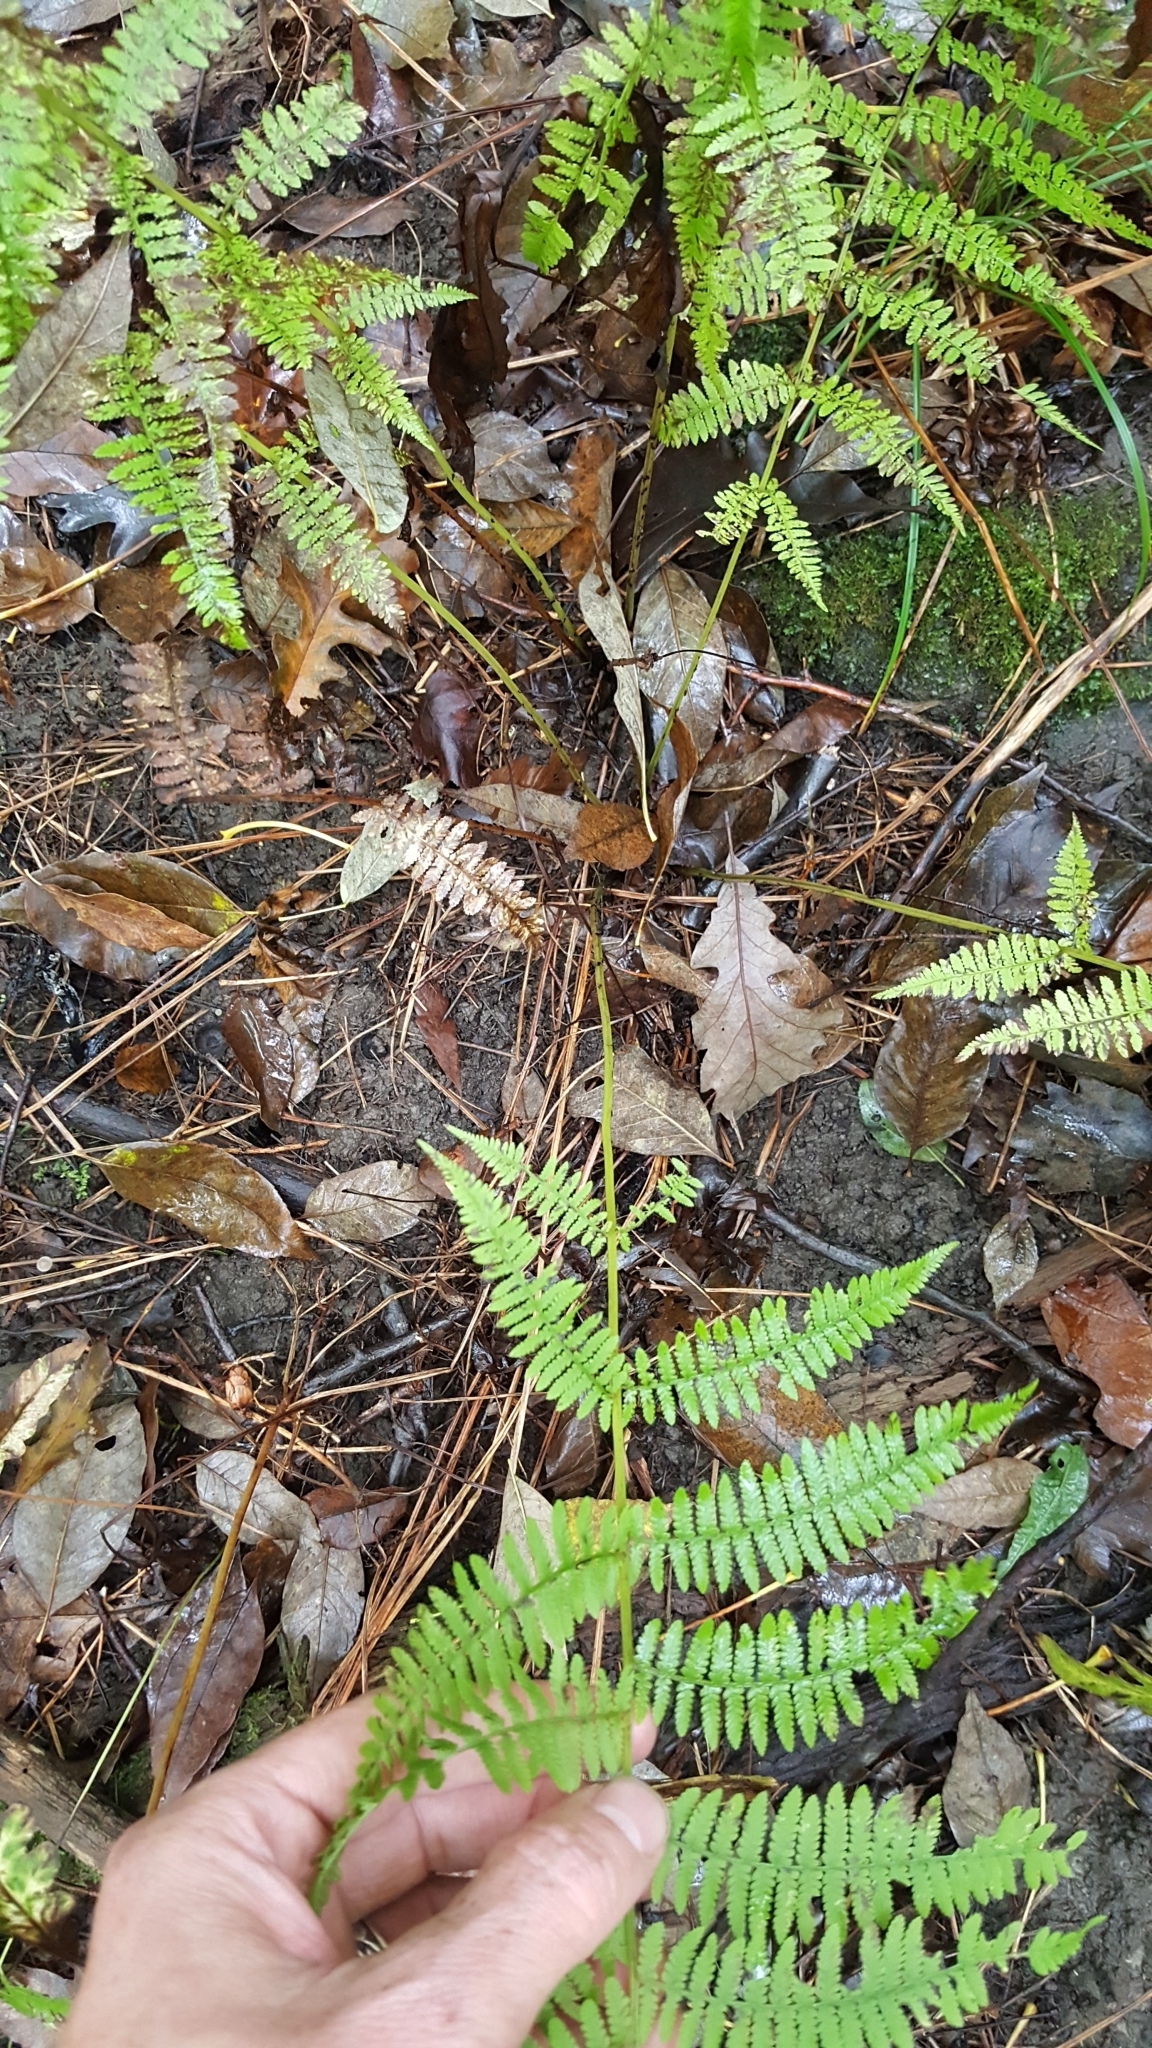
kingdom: Plantae
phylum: Tracheophyta
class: Polypodiopsida
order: Polypodiales
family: Athyriaceae
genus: Athyrium
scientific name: Athyrium angustum
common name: Northern lady fern
